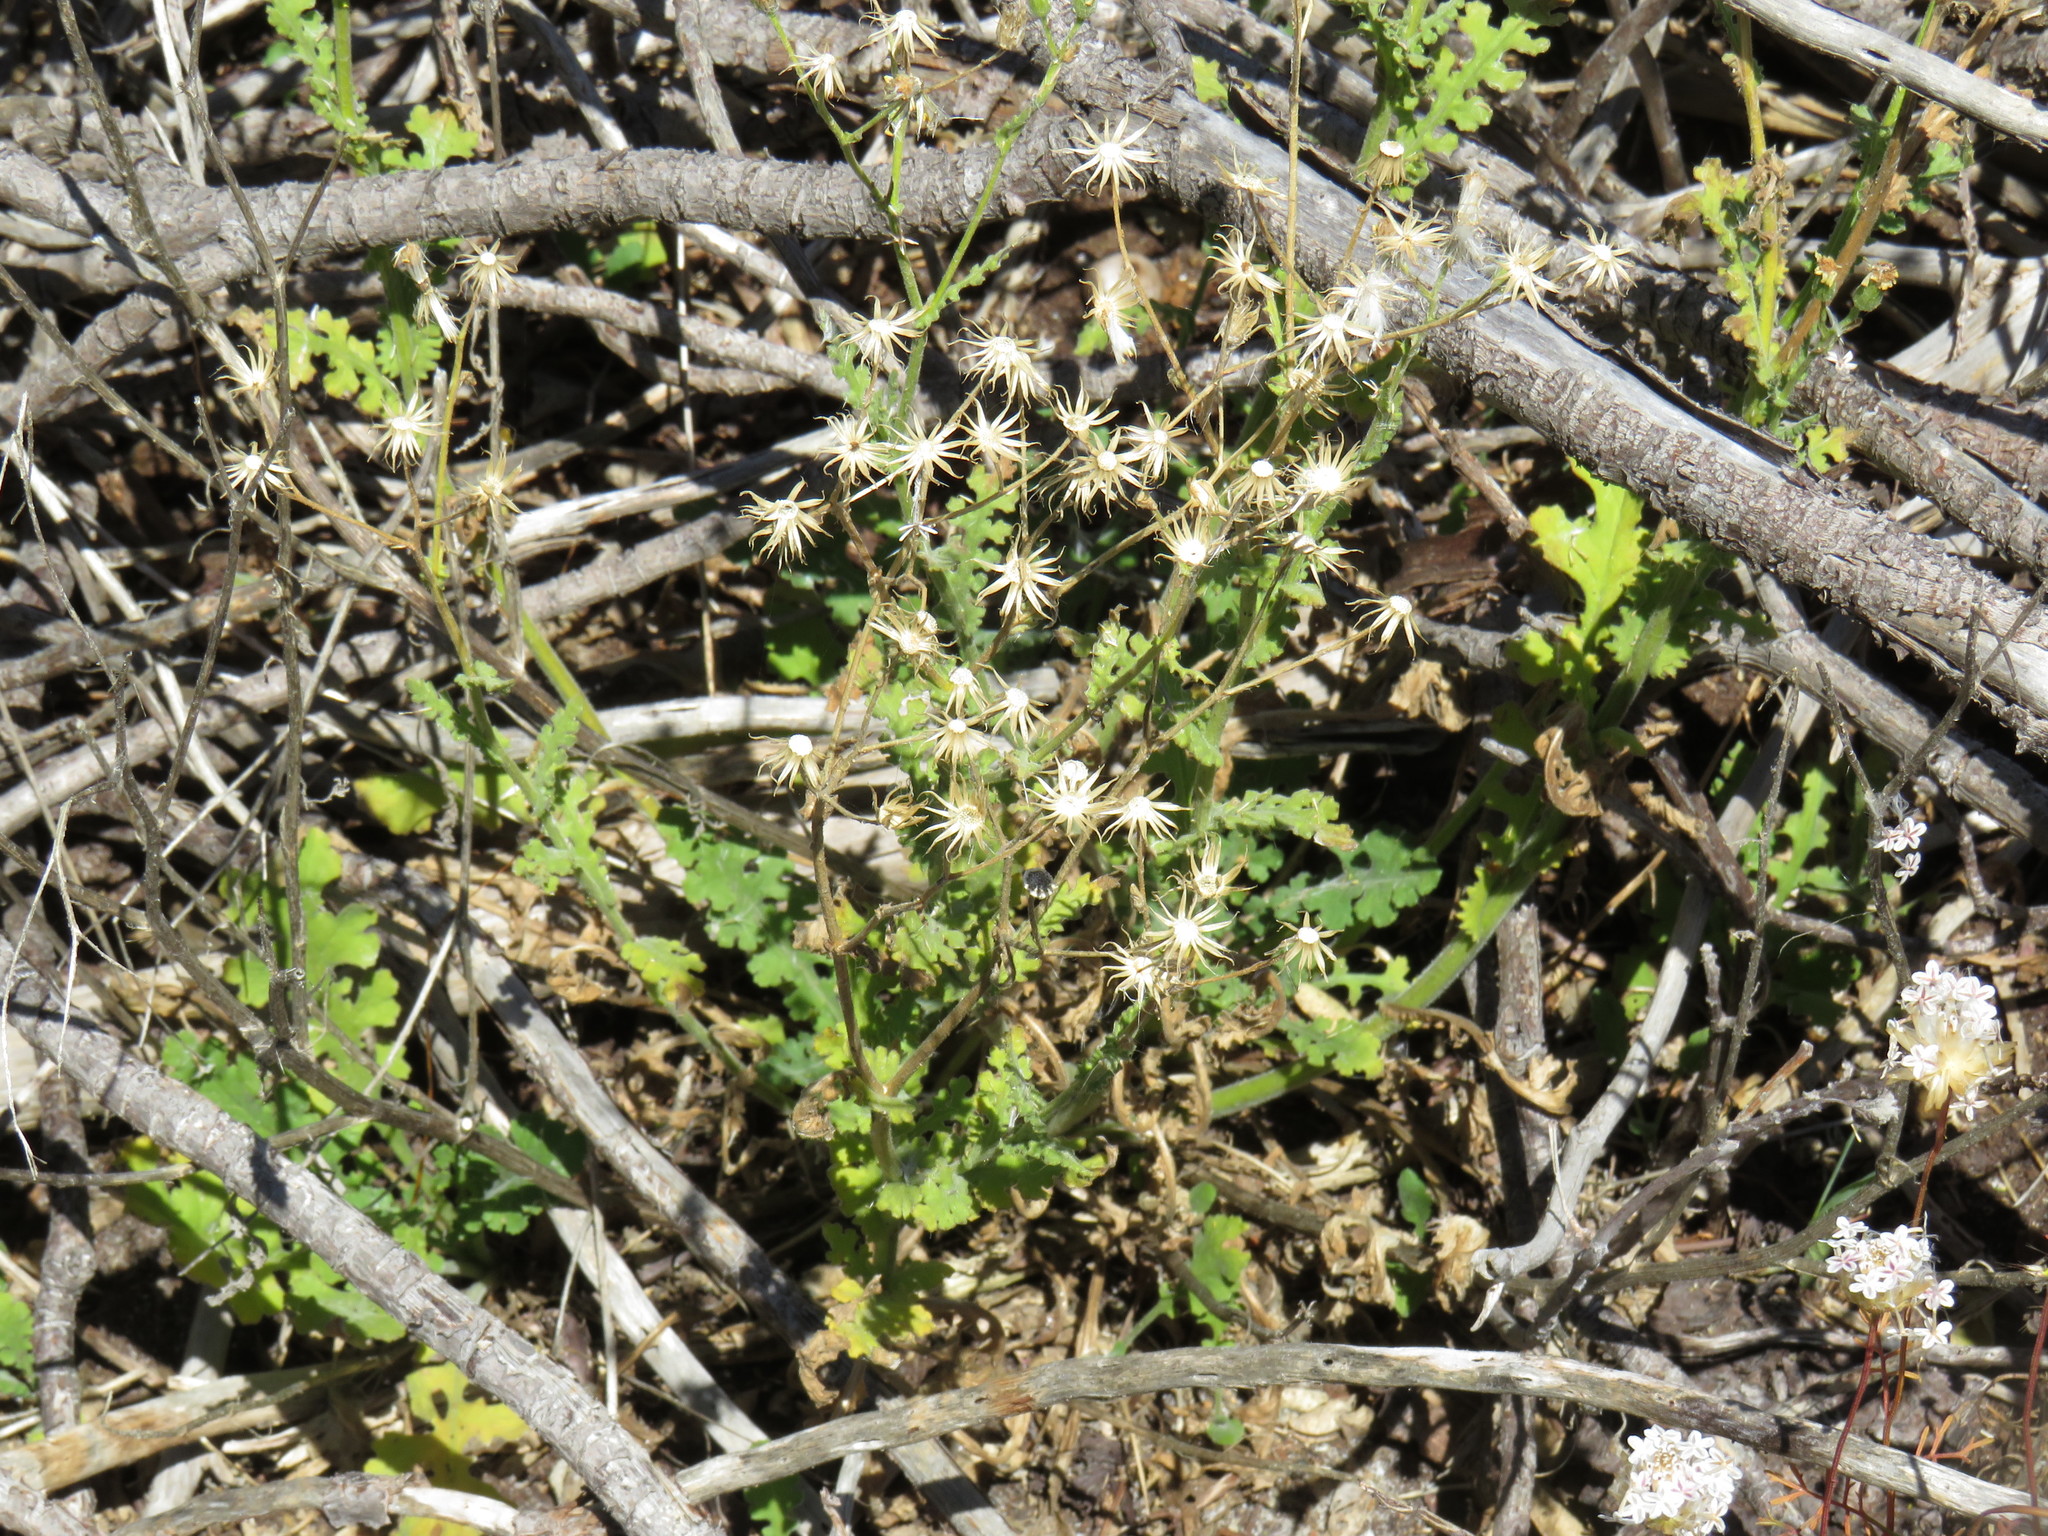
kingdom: Plantae
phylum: Tracheophyta
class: Magnoliopsida
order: Asterales
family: Asteraceae
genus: Senecio
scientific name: Senecio hastatus
